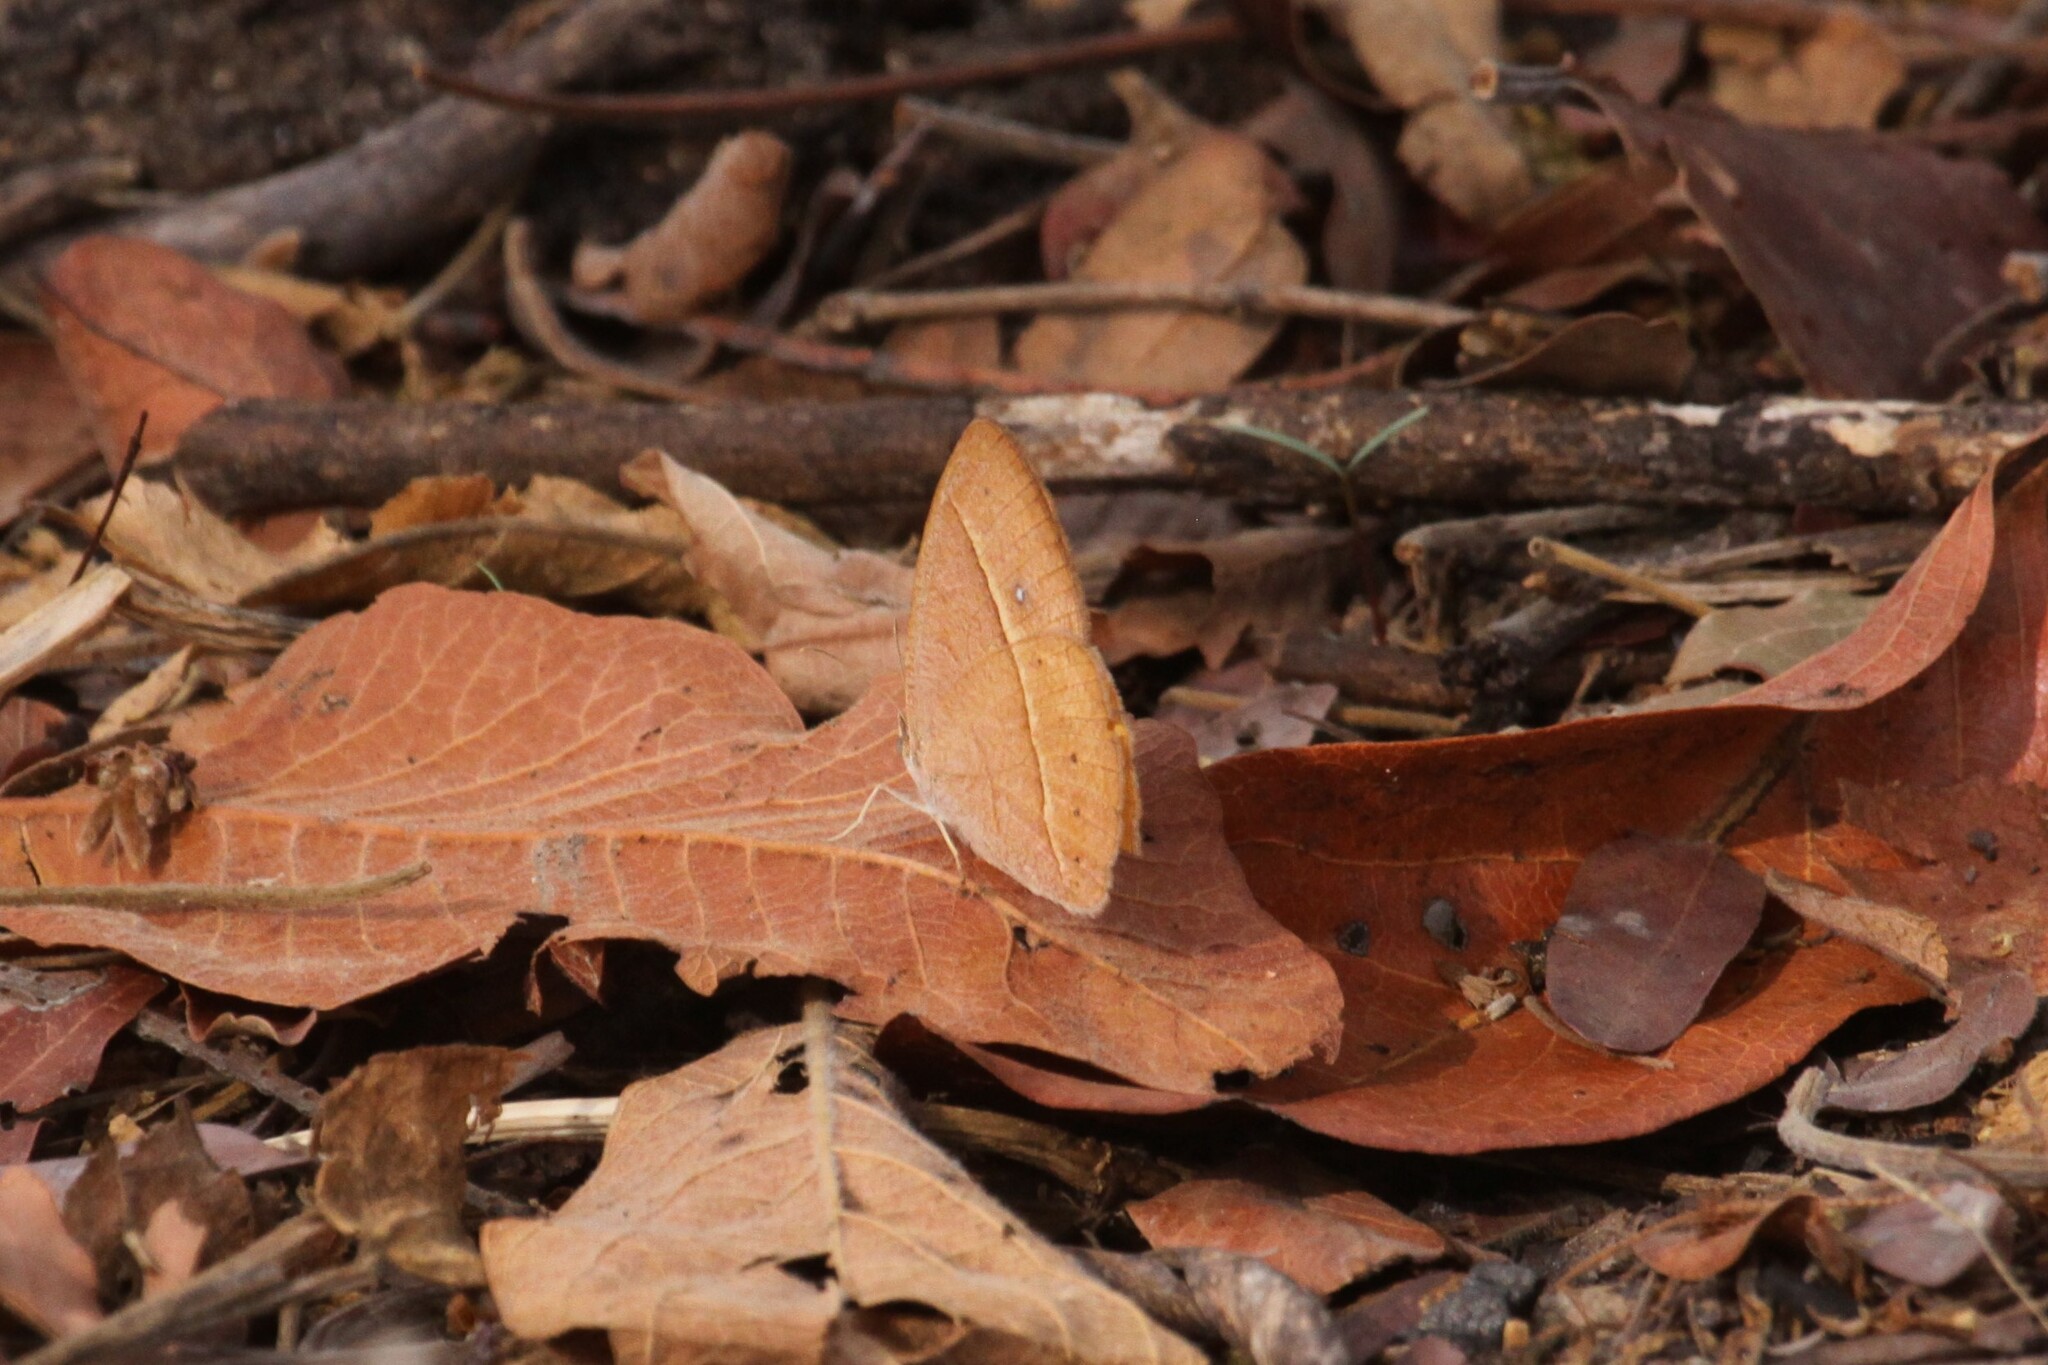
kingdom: Animalia
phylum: Arthropoda
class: Insecta
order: Lepidoptera
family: Nymphalidae
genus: Brakefieldia
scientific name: Brakefieldia simonsii
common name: Pale patroller
